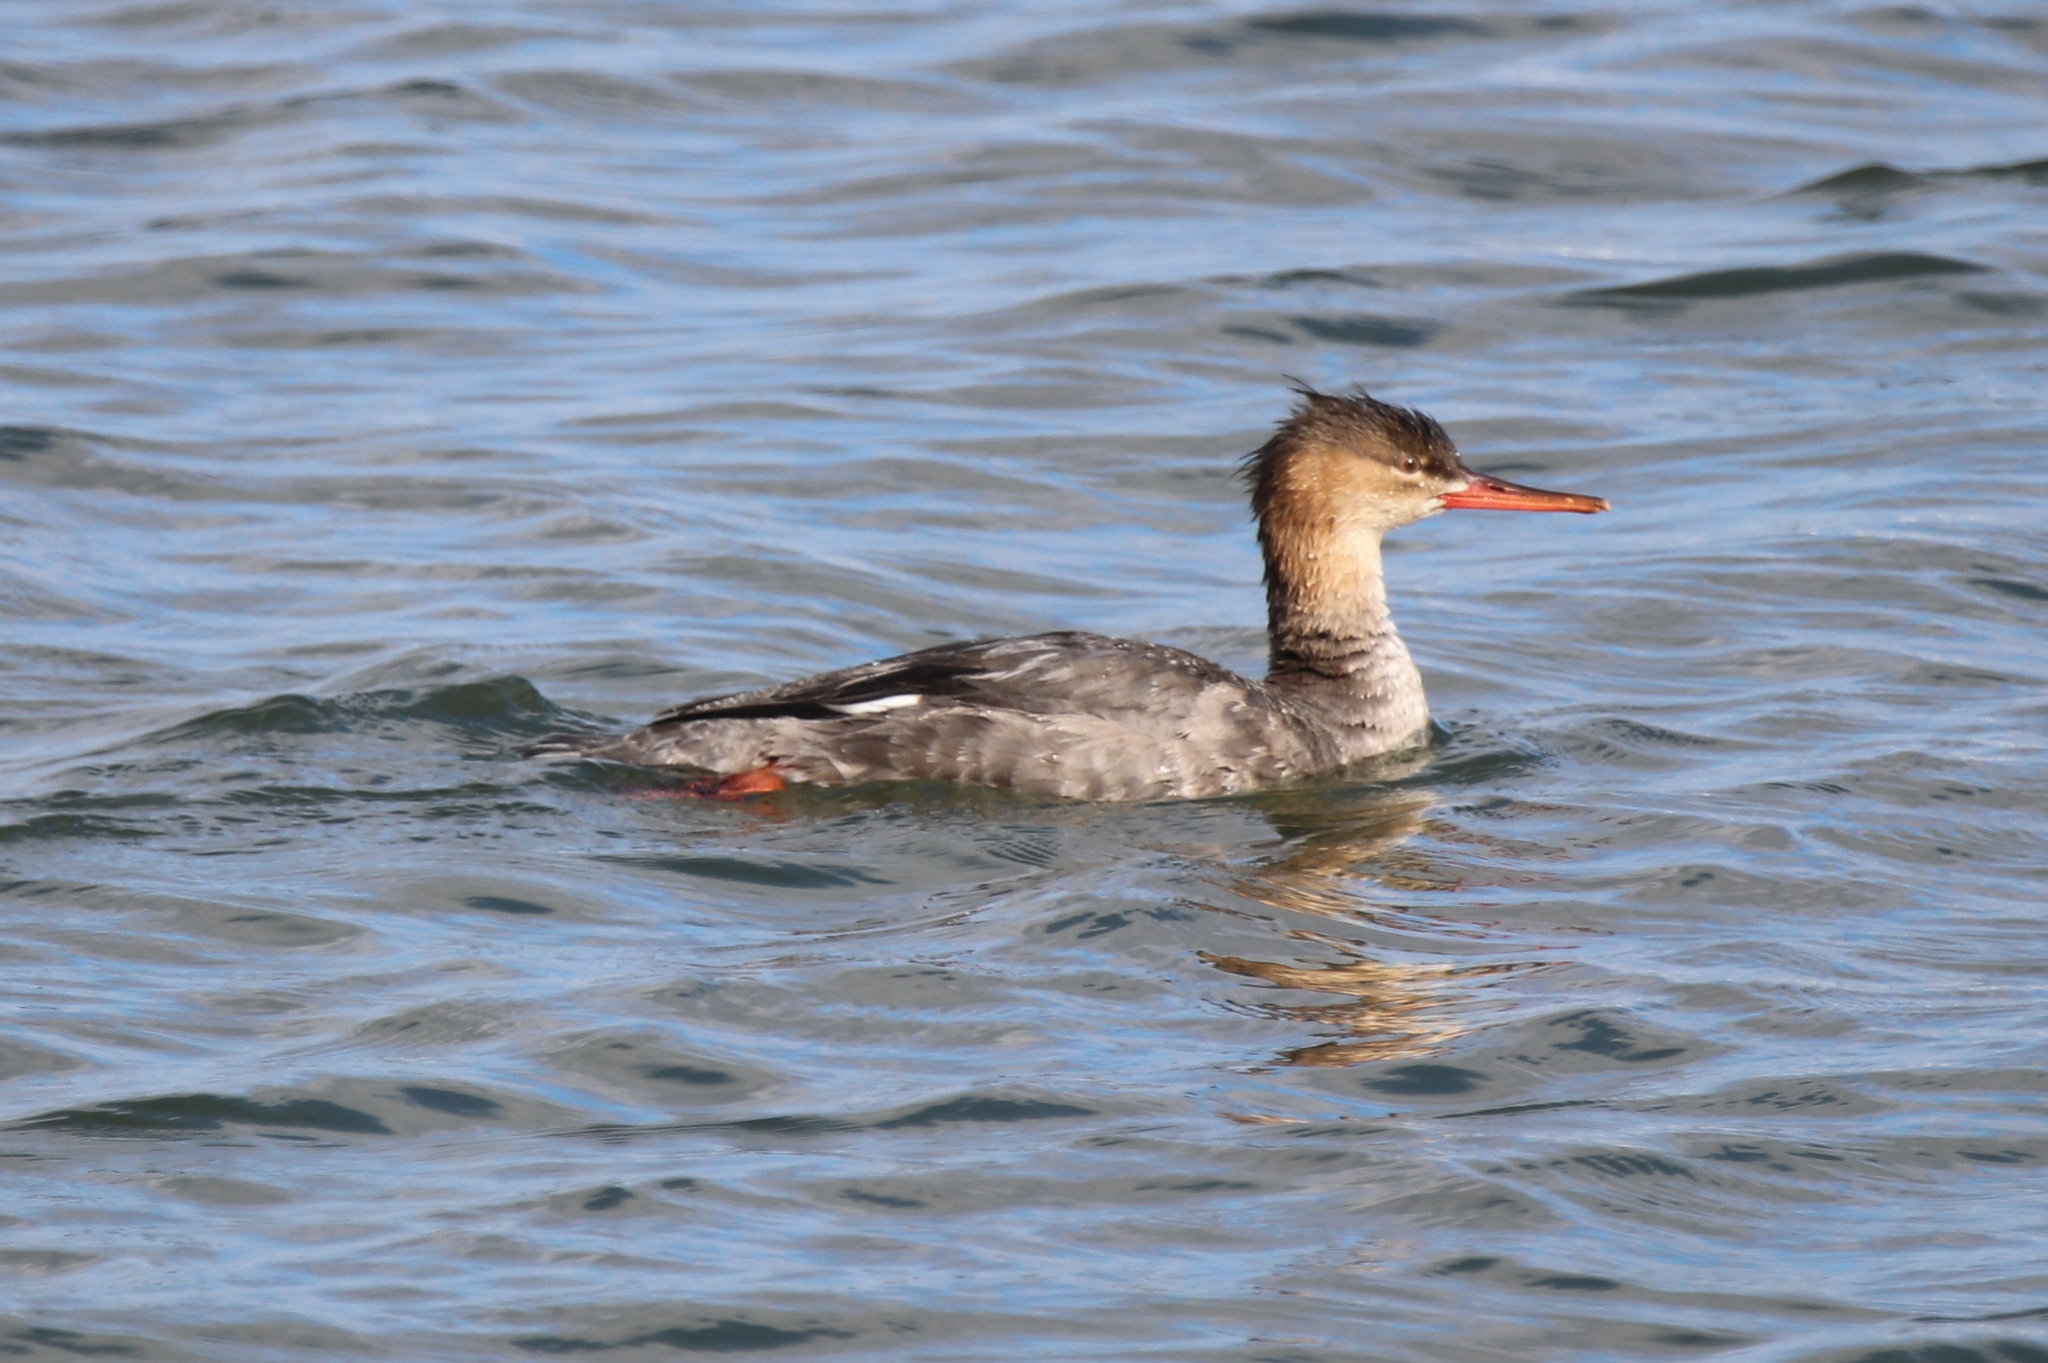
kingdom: Animalia
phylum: Chordata
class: Aves
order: Anseriformes
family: Anatidae
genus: Mergus
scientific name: Mergus serrator
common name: Red-breasted merganser
